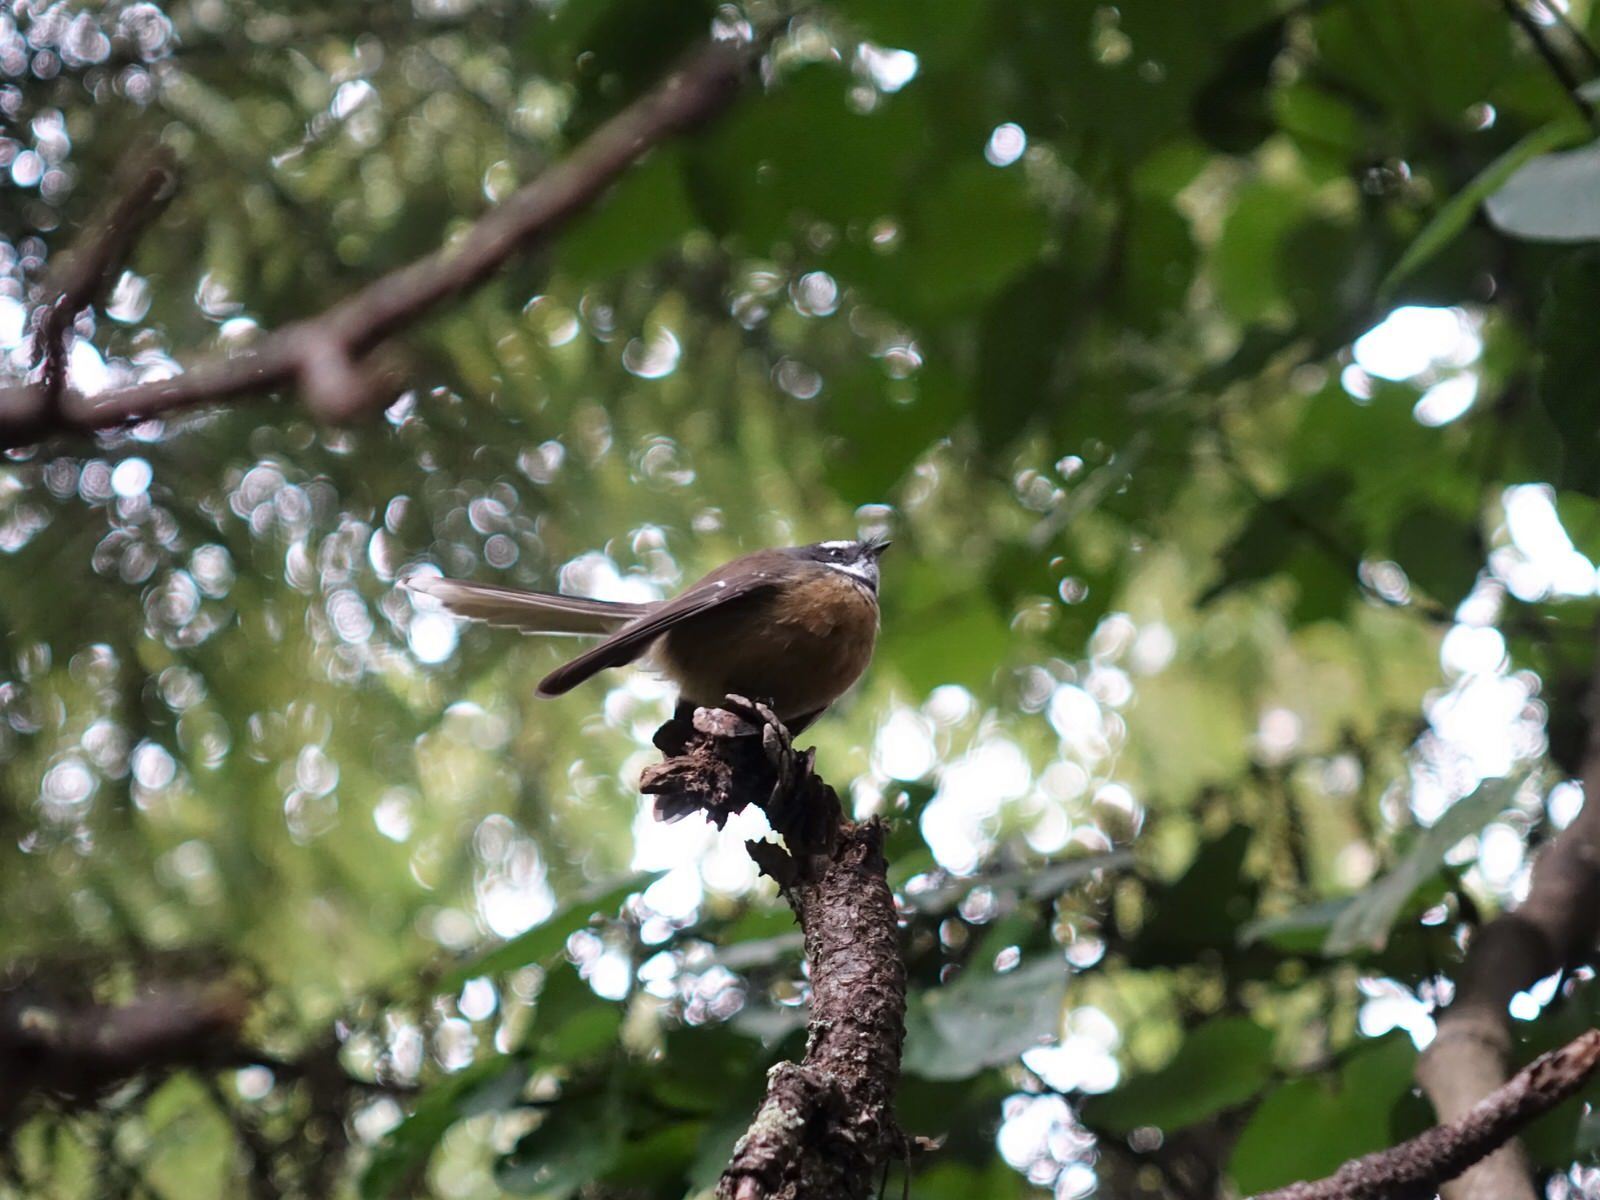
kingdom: Animalia
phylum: Chordata
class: Aves
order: Passeriformes
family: Rhipiduridae
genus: Rhipidura
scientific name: Rhipidura fuliginosa
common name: New zealand fantail
